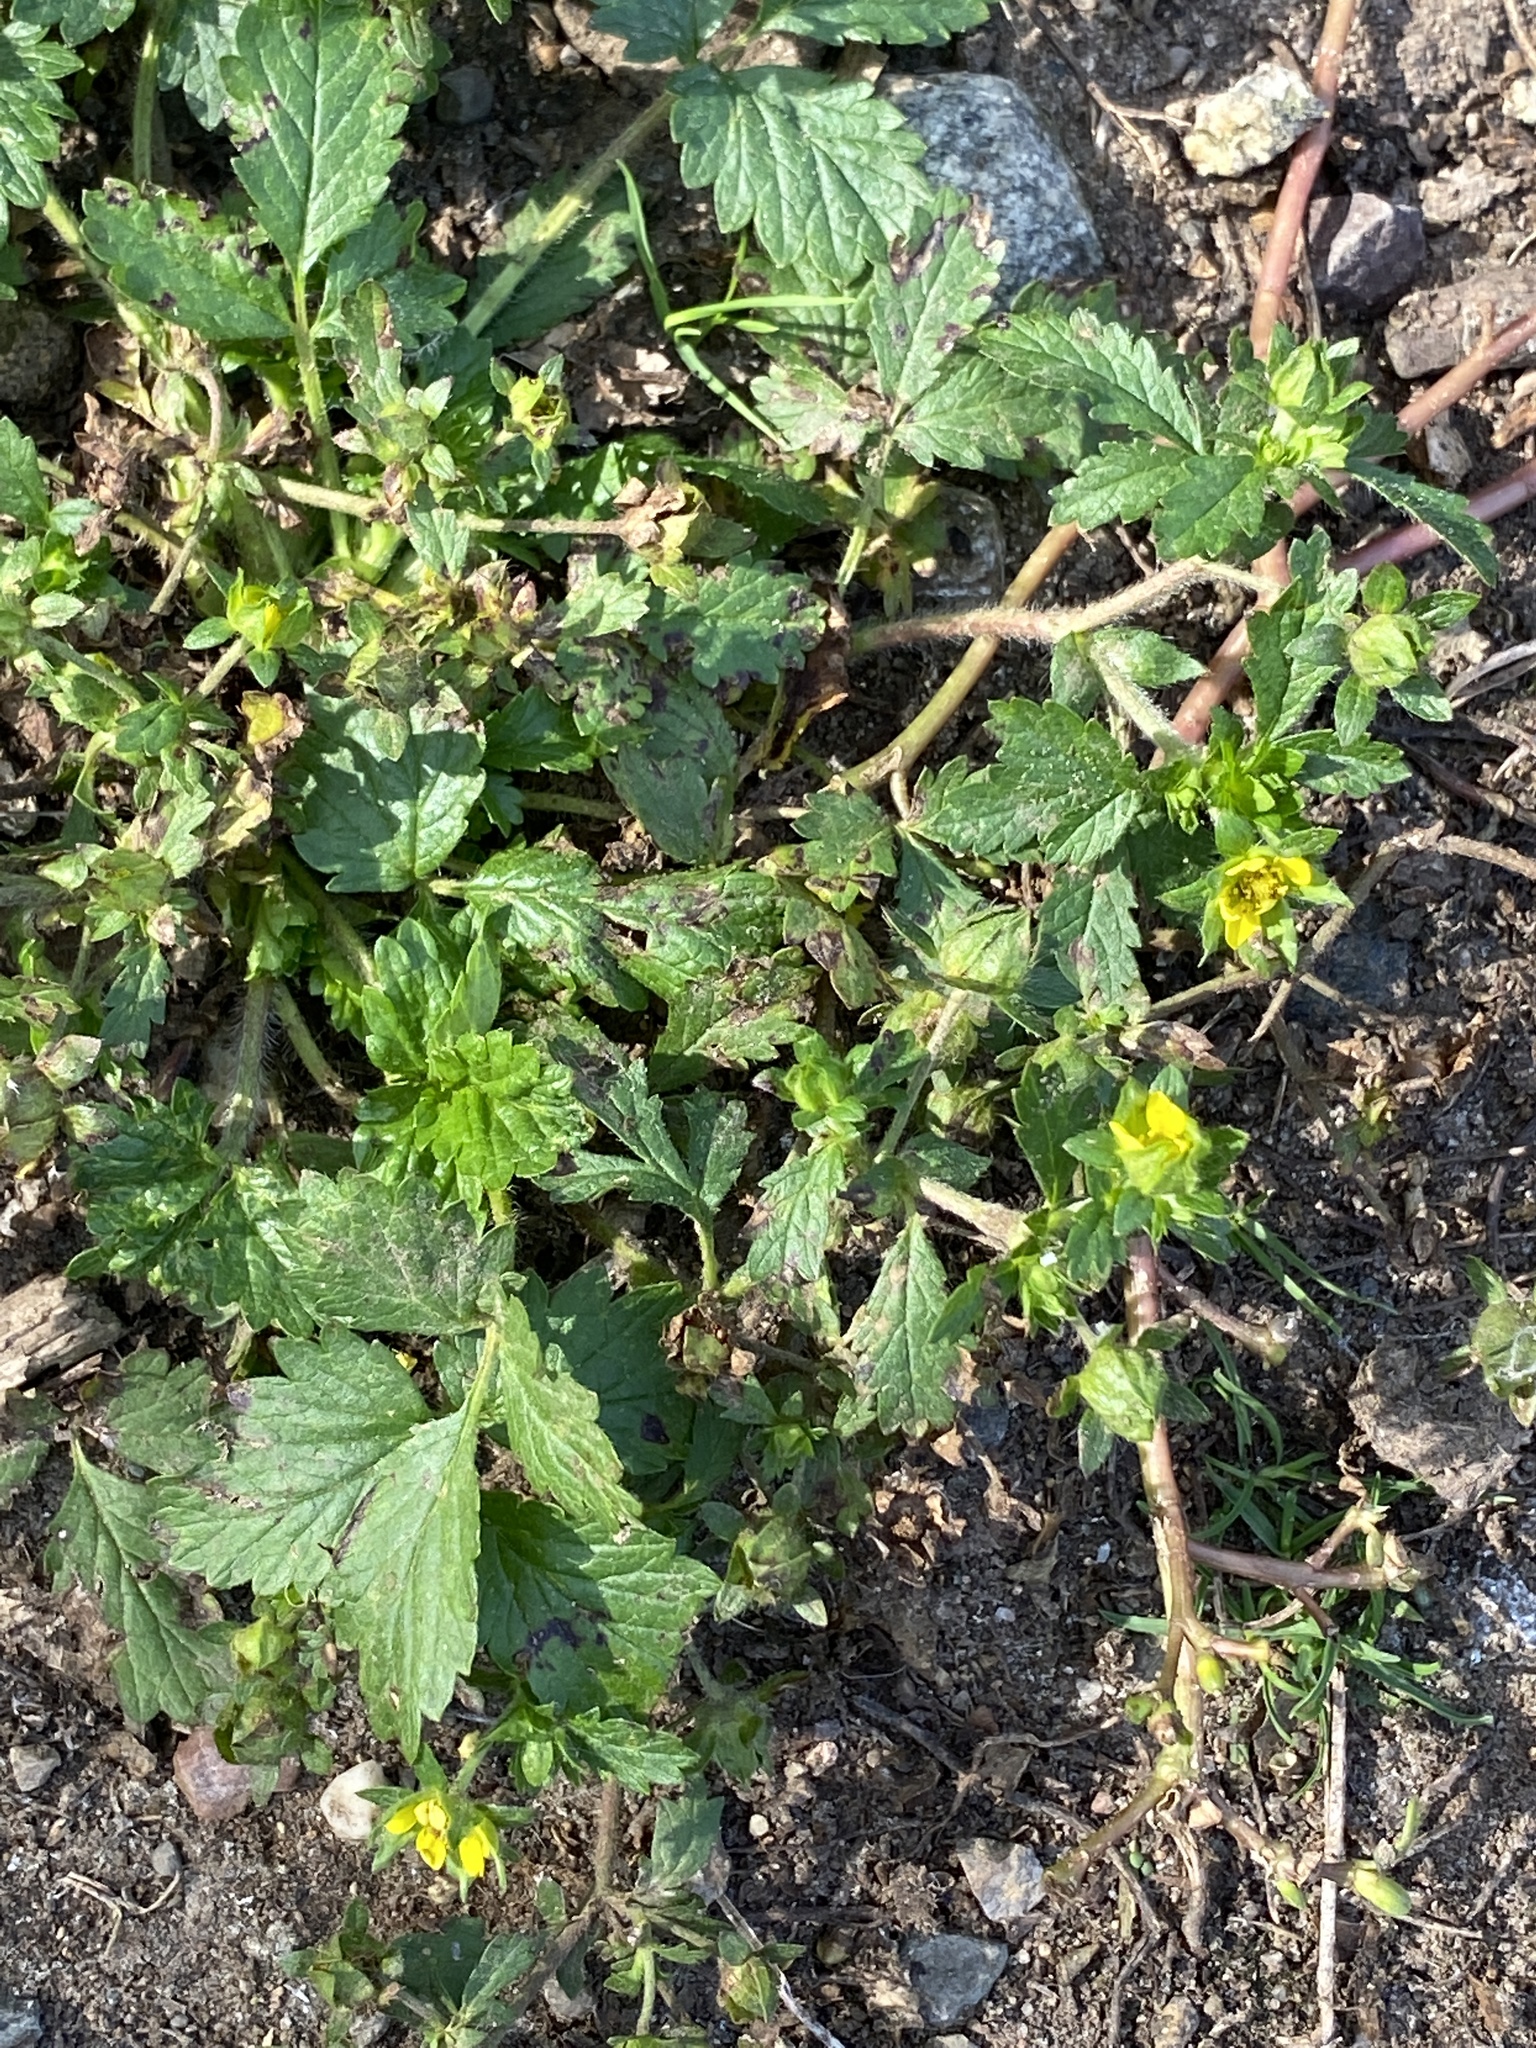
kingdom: Plantae
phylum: Tracheophyta
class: Magnoliopsida
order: Rosales
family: Rosaceae
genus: Potentilla
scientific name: Potentilla norvegica
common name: Ternate-leaved cinquefoil
